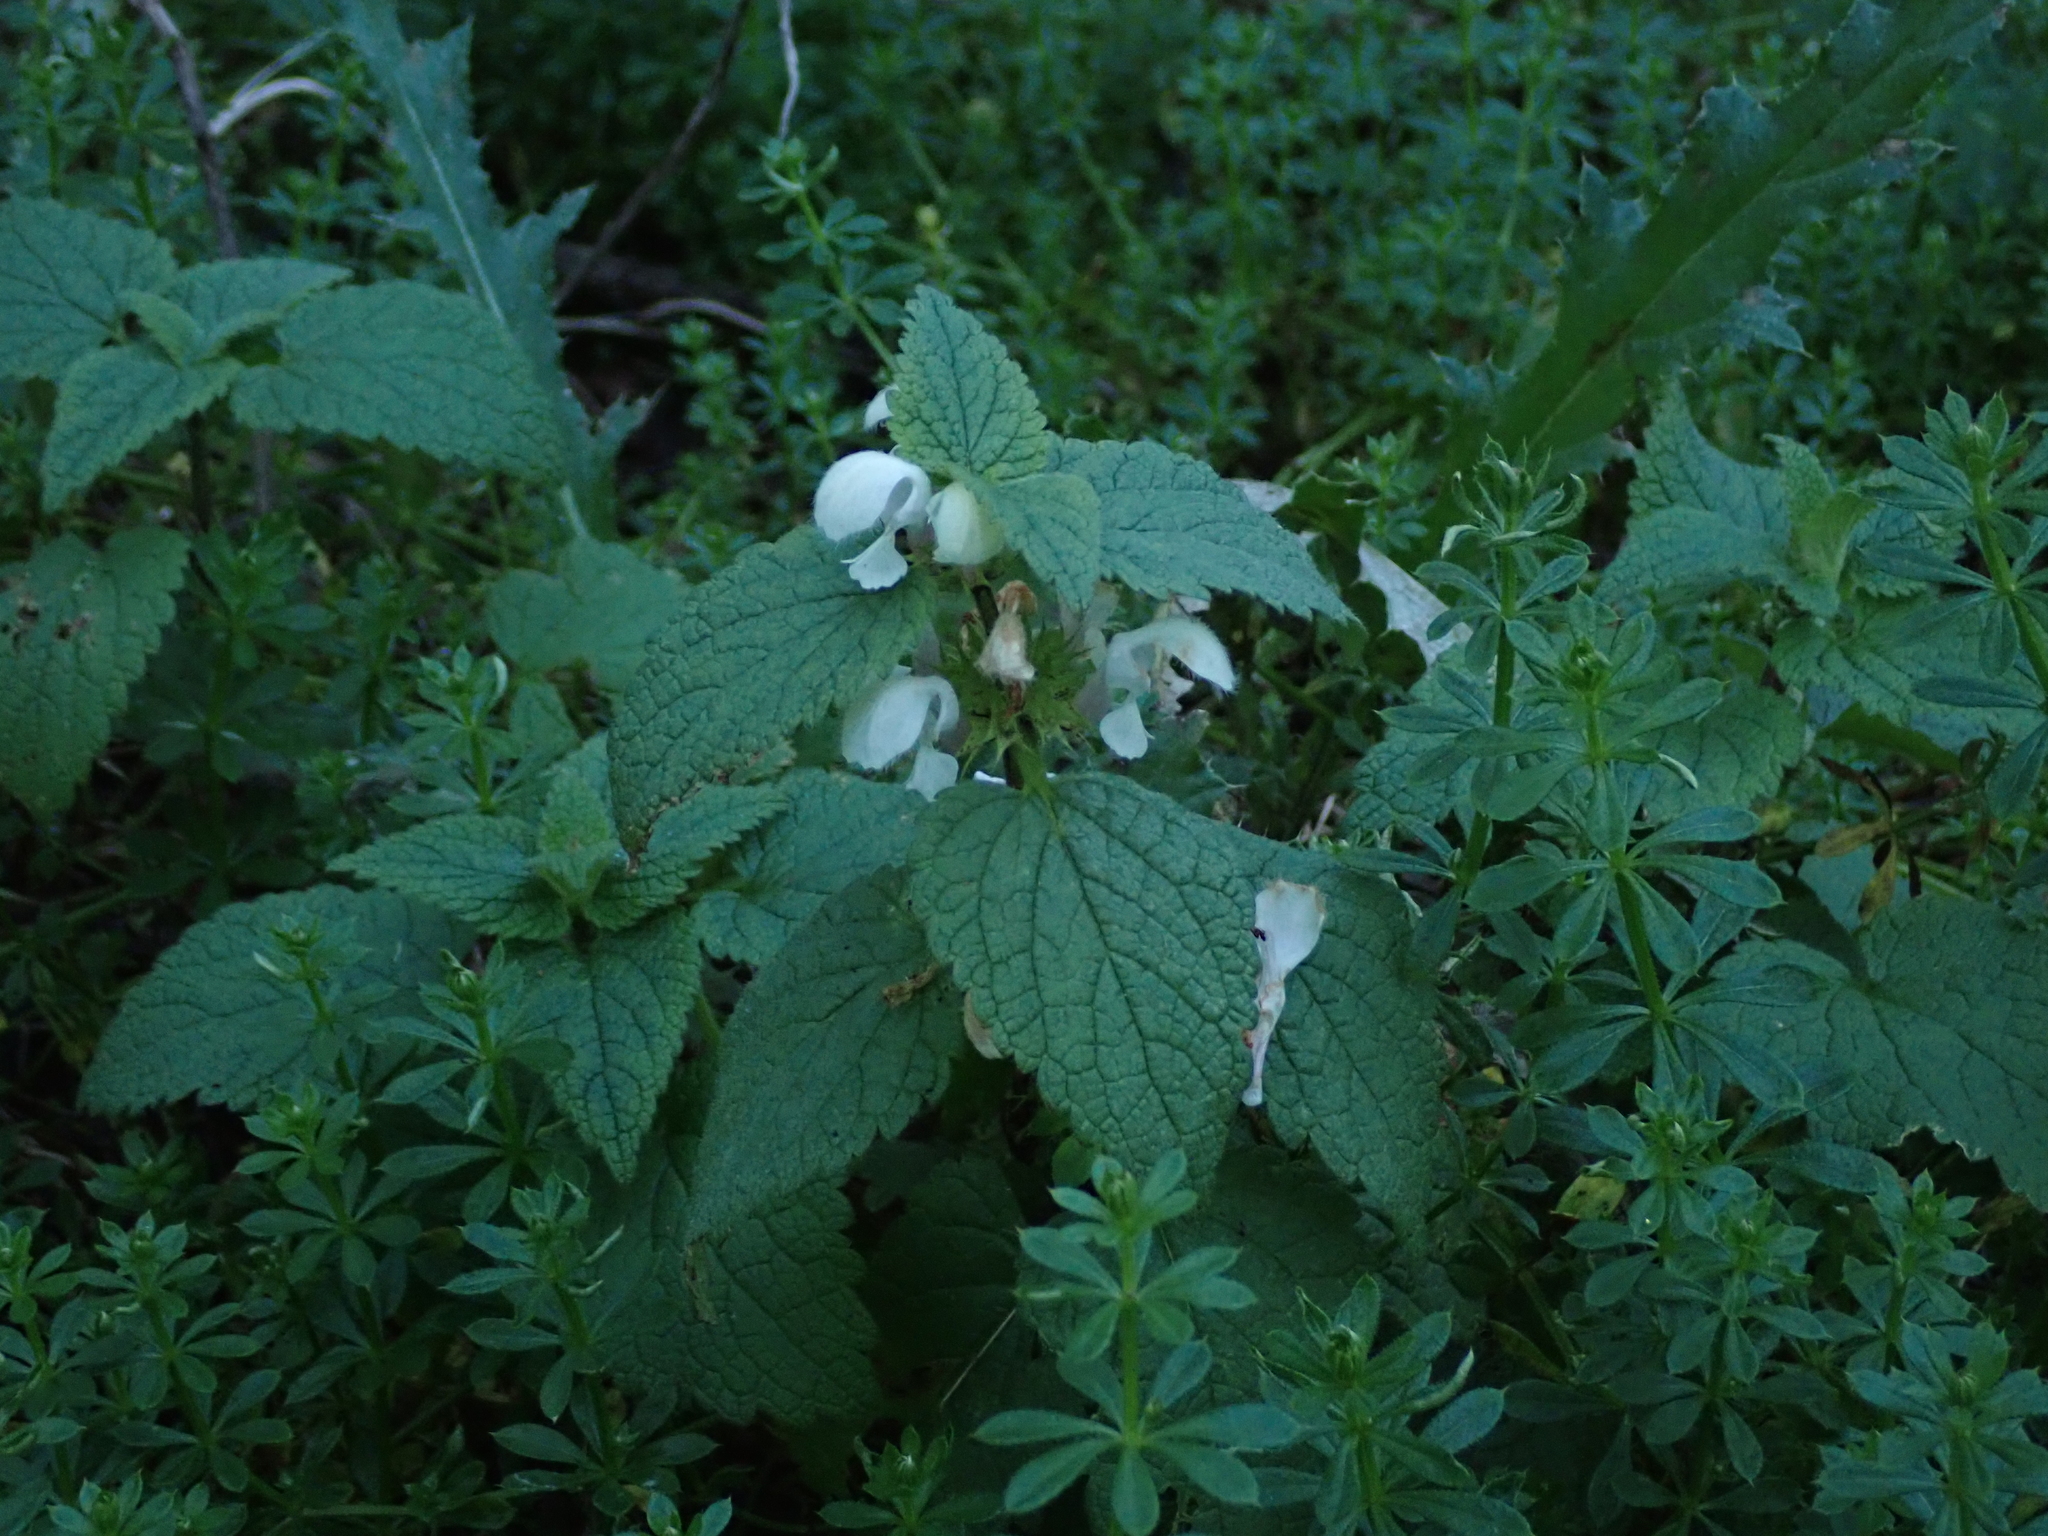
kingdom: Plantae
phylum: Tracheophyta
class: Magnoliopsida
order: Lamiales
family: Lamiaceae
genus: Lamium
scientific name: Lamium album
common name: White dead-nettle
